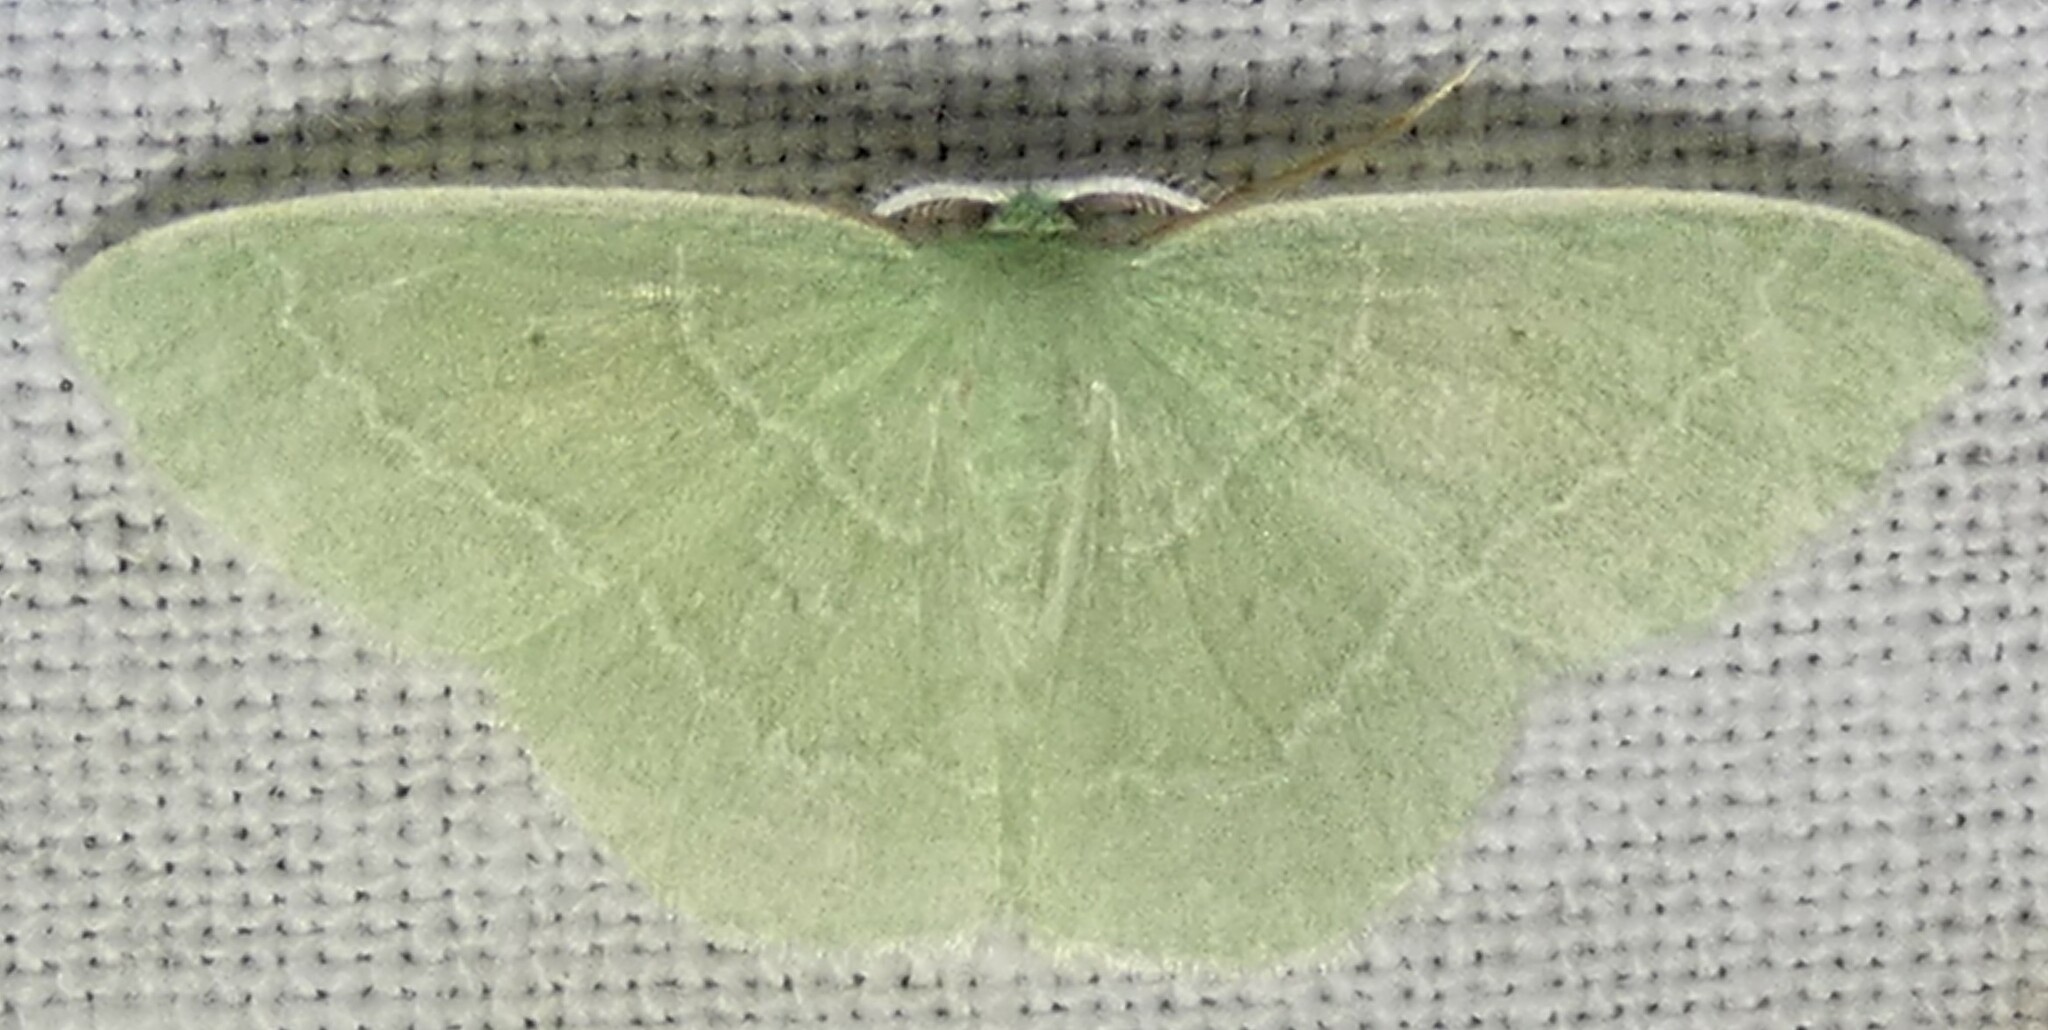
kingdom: Animalia
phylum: Arthropoda
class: Insecta
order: Lepidoptera
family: Geometridae
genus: Nemoria
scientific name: Nemoria elfa
